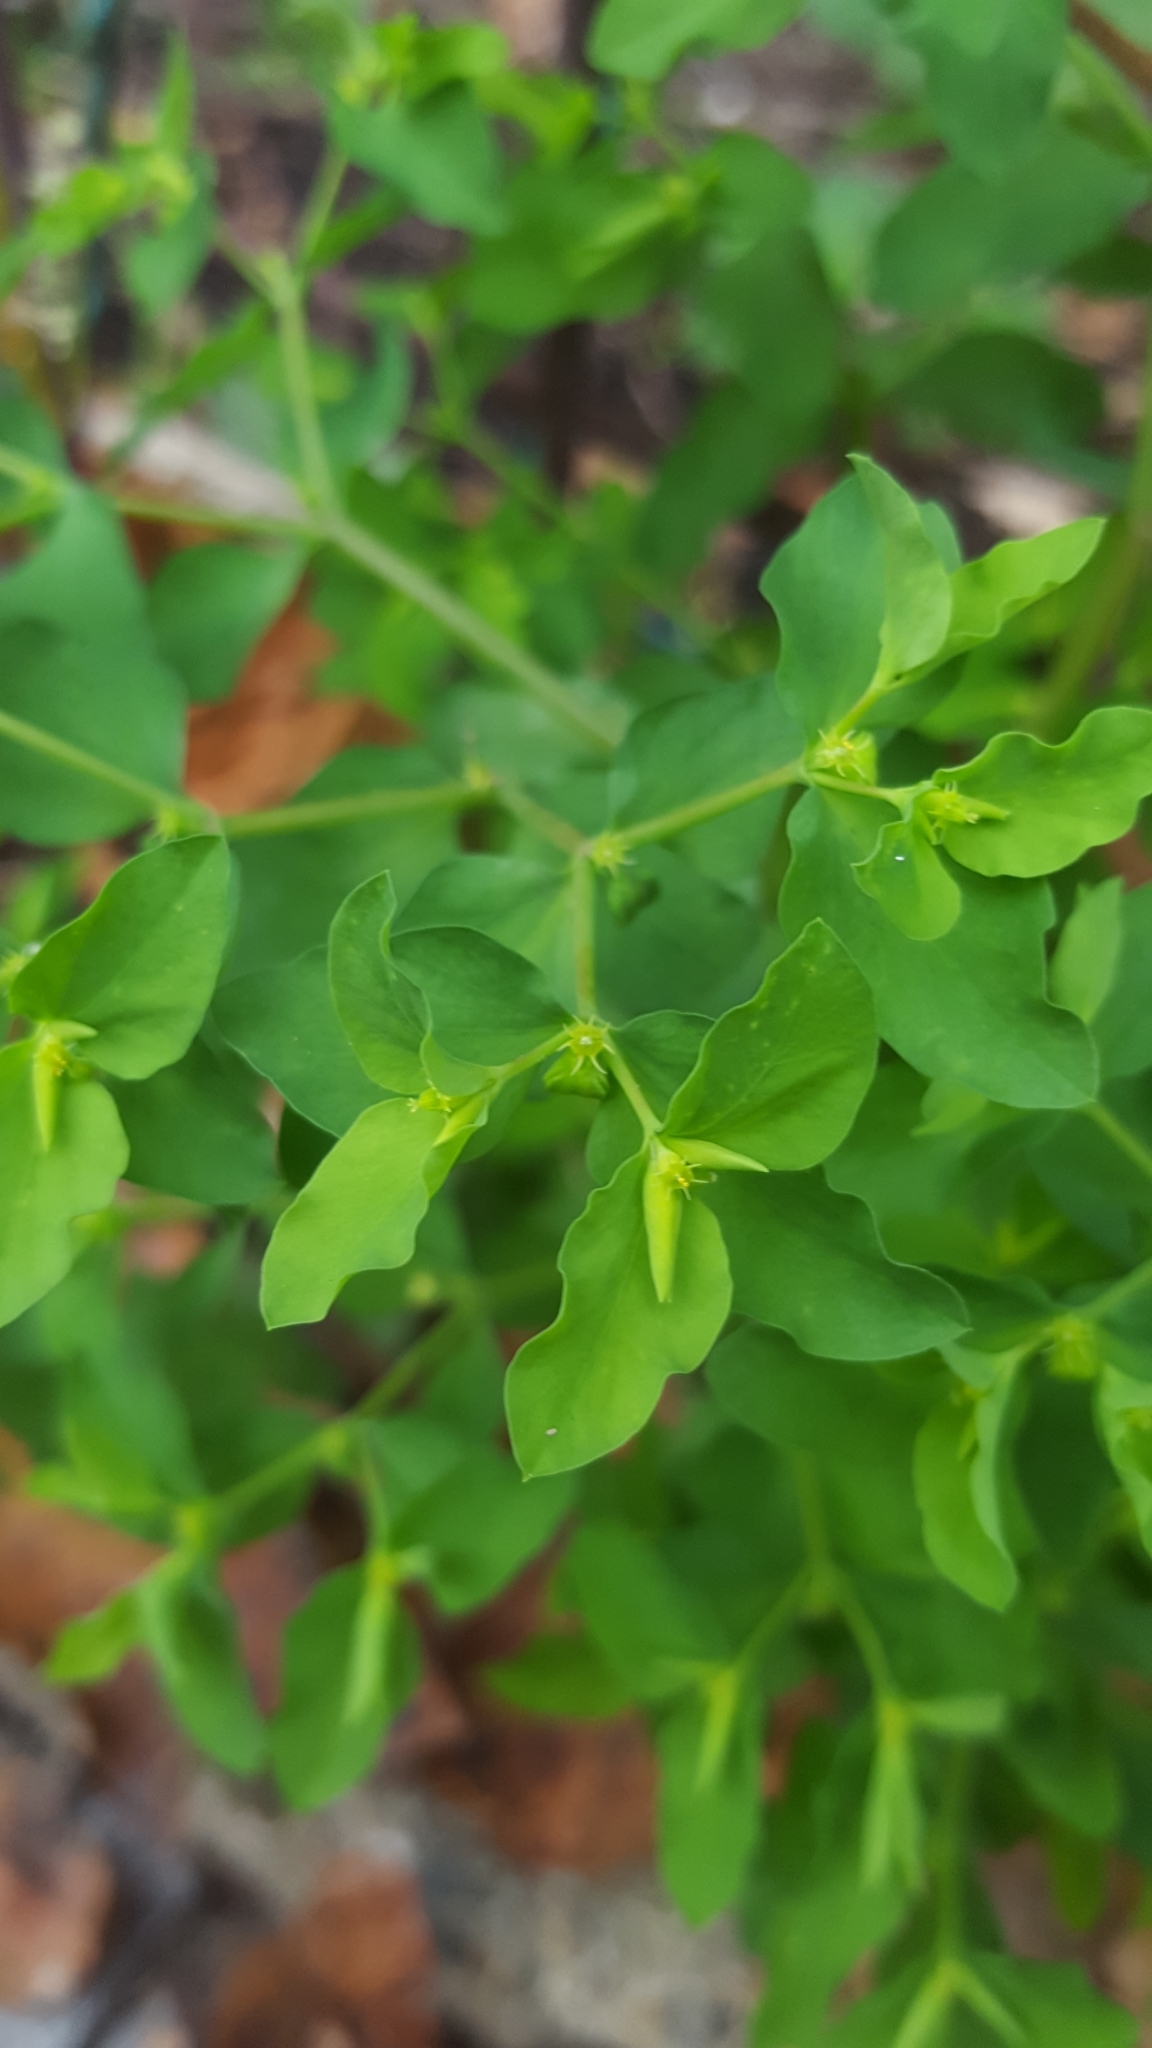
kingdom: Plantae
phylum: Tracheophyta
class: Magnoliopsida
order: Malpighiales
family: Euphorbiaceae
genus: Euphorbia
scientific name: Euphorbia peplus
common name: Petty spurge
